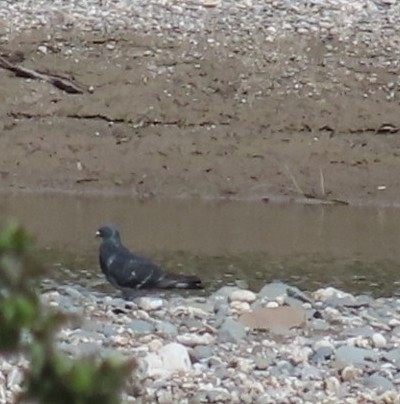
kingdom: Animalia
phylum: Chordata
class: Aves
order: Columbiformes
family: Columbidae
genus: Columba
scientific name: Columba livia
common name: Rock pigeon
